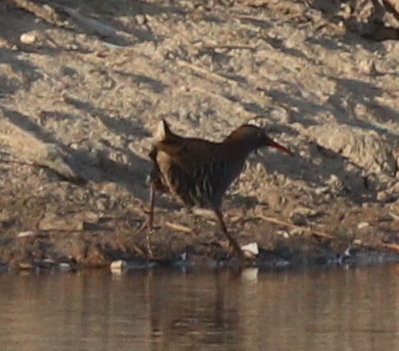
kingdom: Animalia
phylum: Chordata
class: Aves
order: Gruiformes
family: Rallidae
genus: Rallus
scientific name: Rallus aquaticus
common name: Water rail
